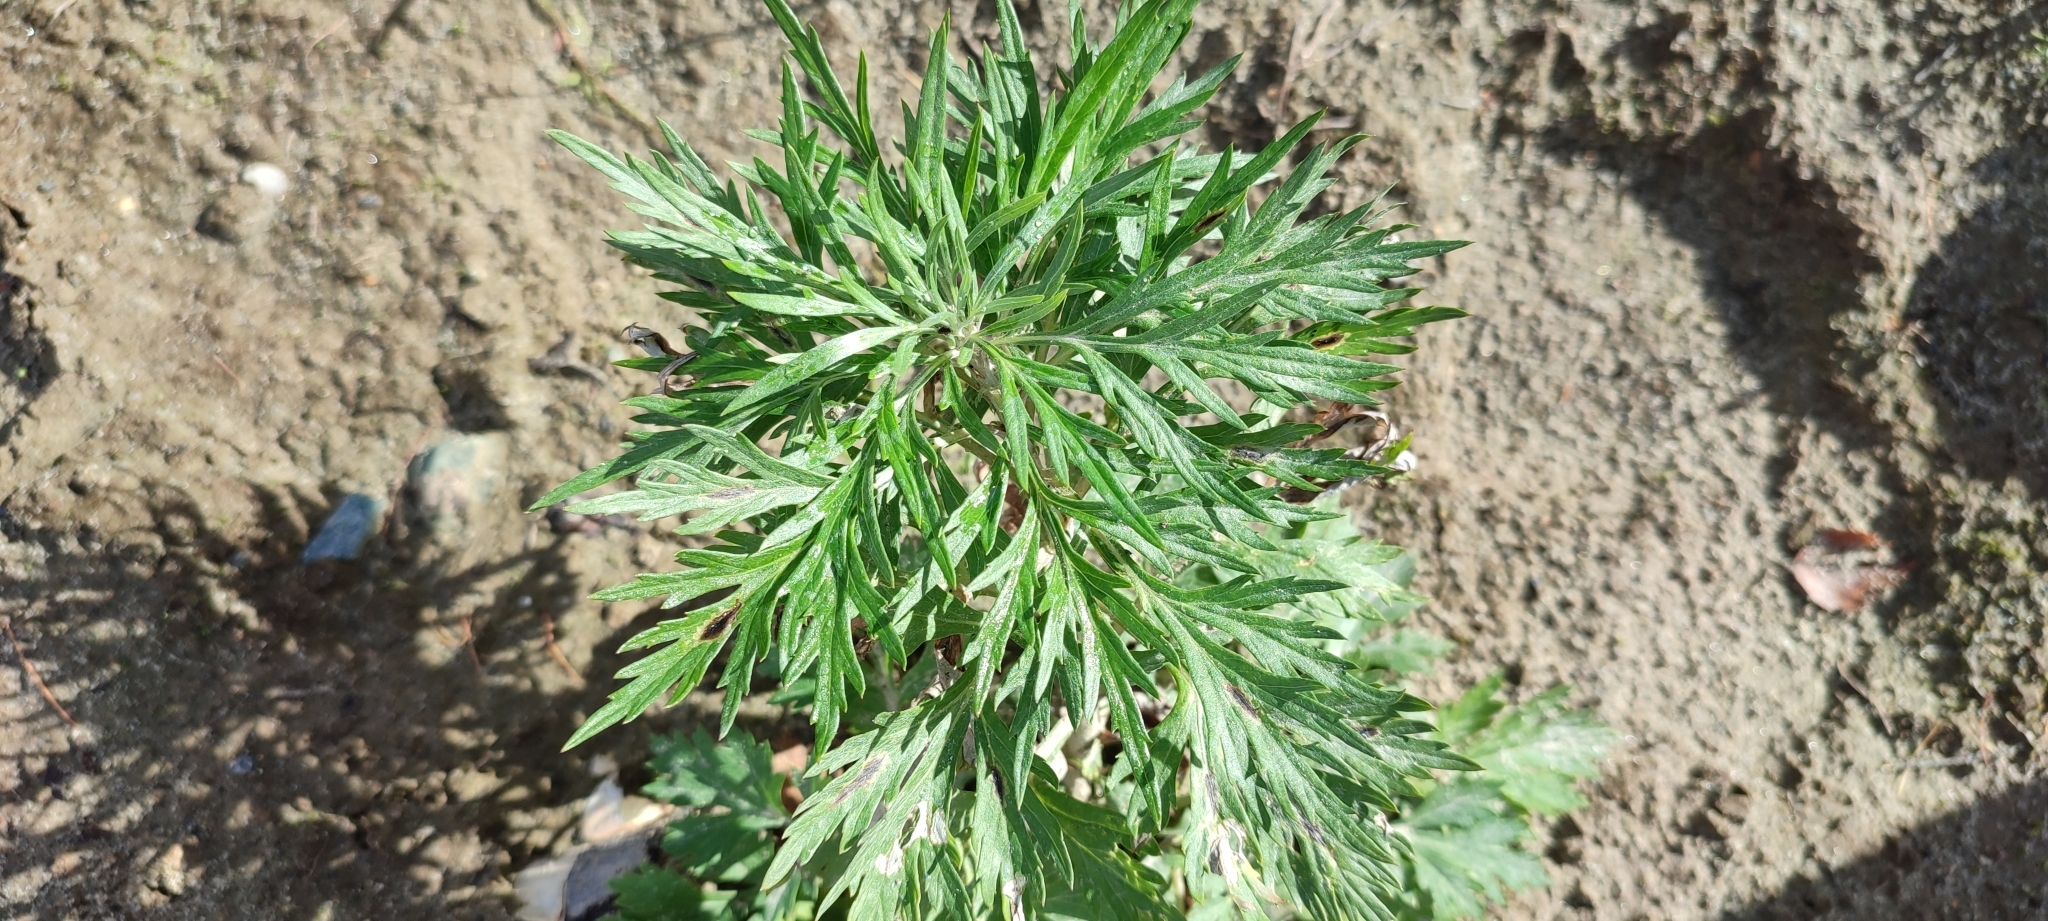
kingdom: Plantae
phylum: Tracheophyta
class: Magnoliopsida
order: Asterales
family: Asteraceae
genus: Artemisia
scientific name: Artemisia tilesii
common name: Aleutian mugwort
